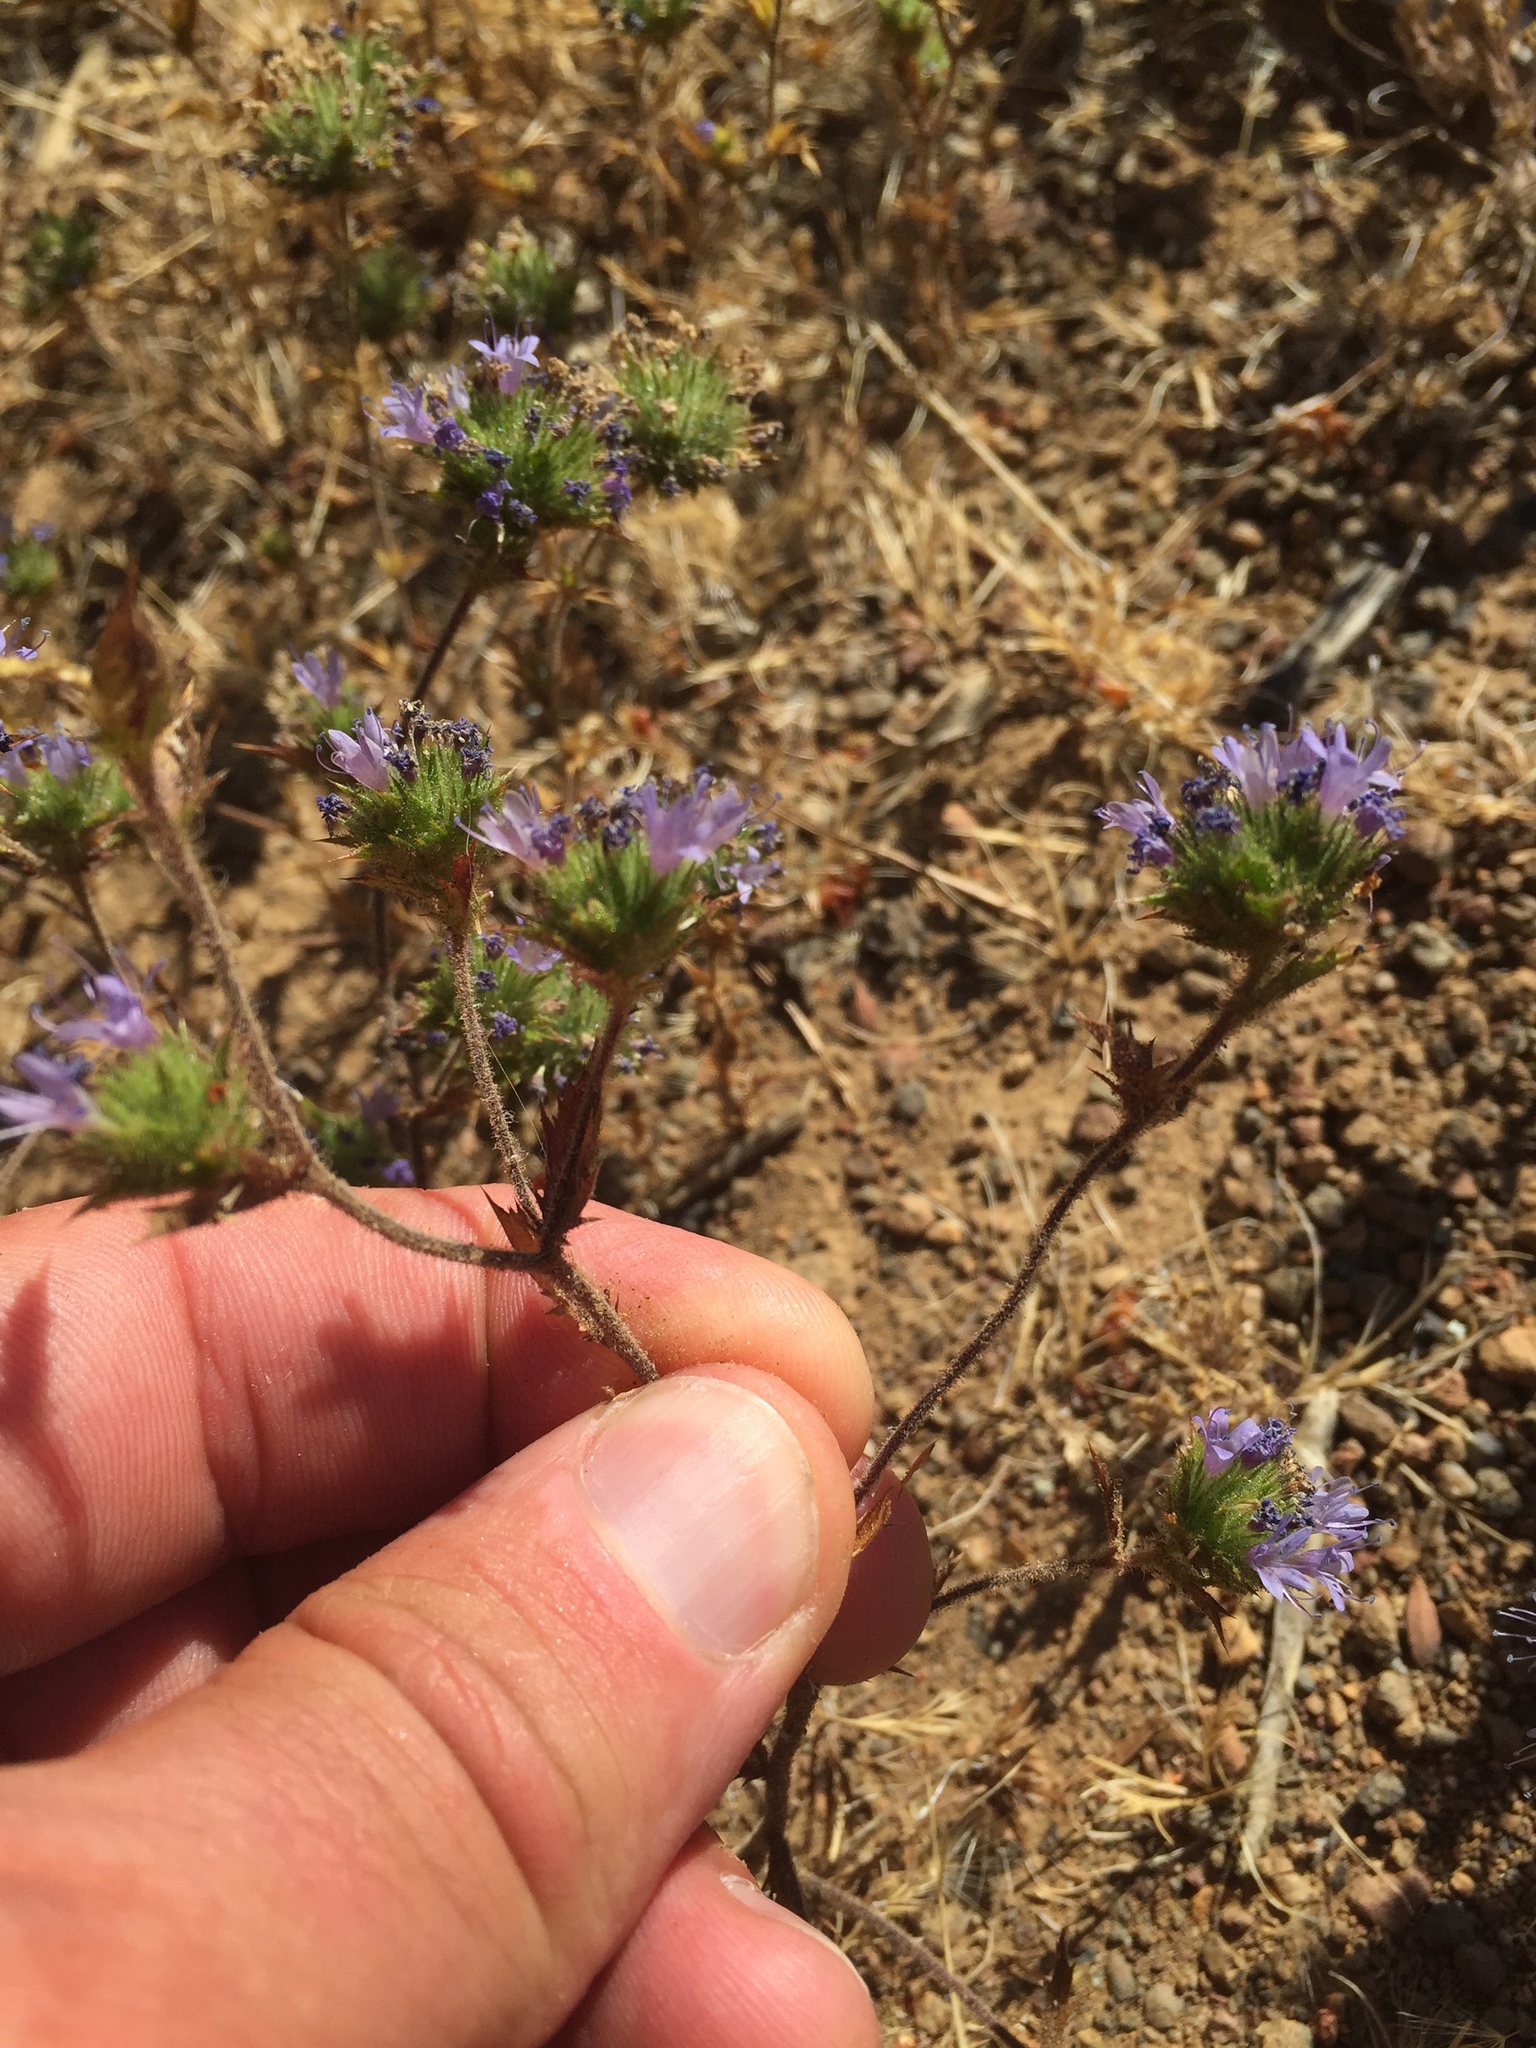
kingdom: Plantae
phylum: Tracheophyta
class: Magnoliopsida
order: Ericales
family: Polemoniaceae
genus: Navarretia
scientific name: Navarretia heterodoxa
